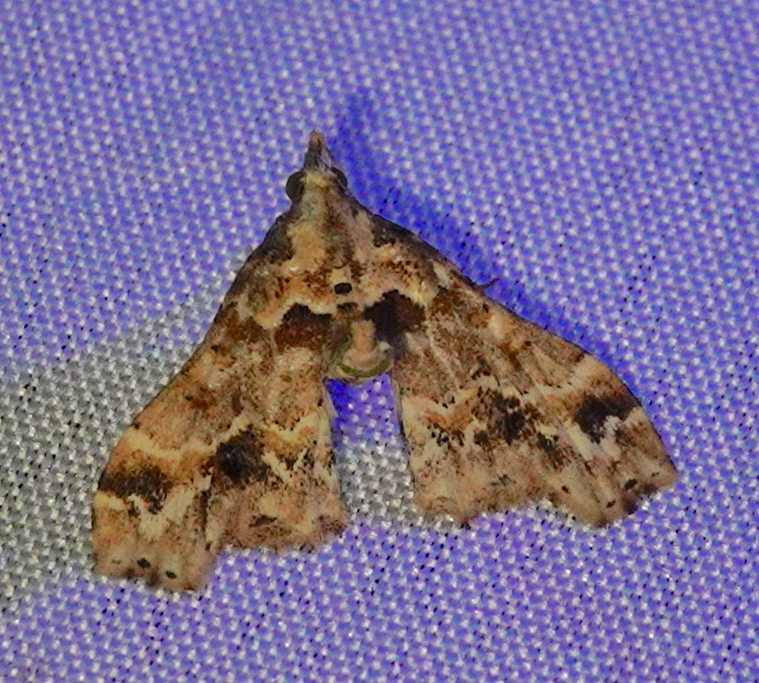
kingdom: Animalia
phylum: Arthropoda
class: Insecta
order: Lepidoptera
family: Erebidae
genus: Lascoria
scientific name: Lascoria laurentia
